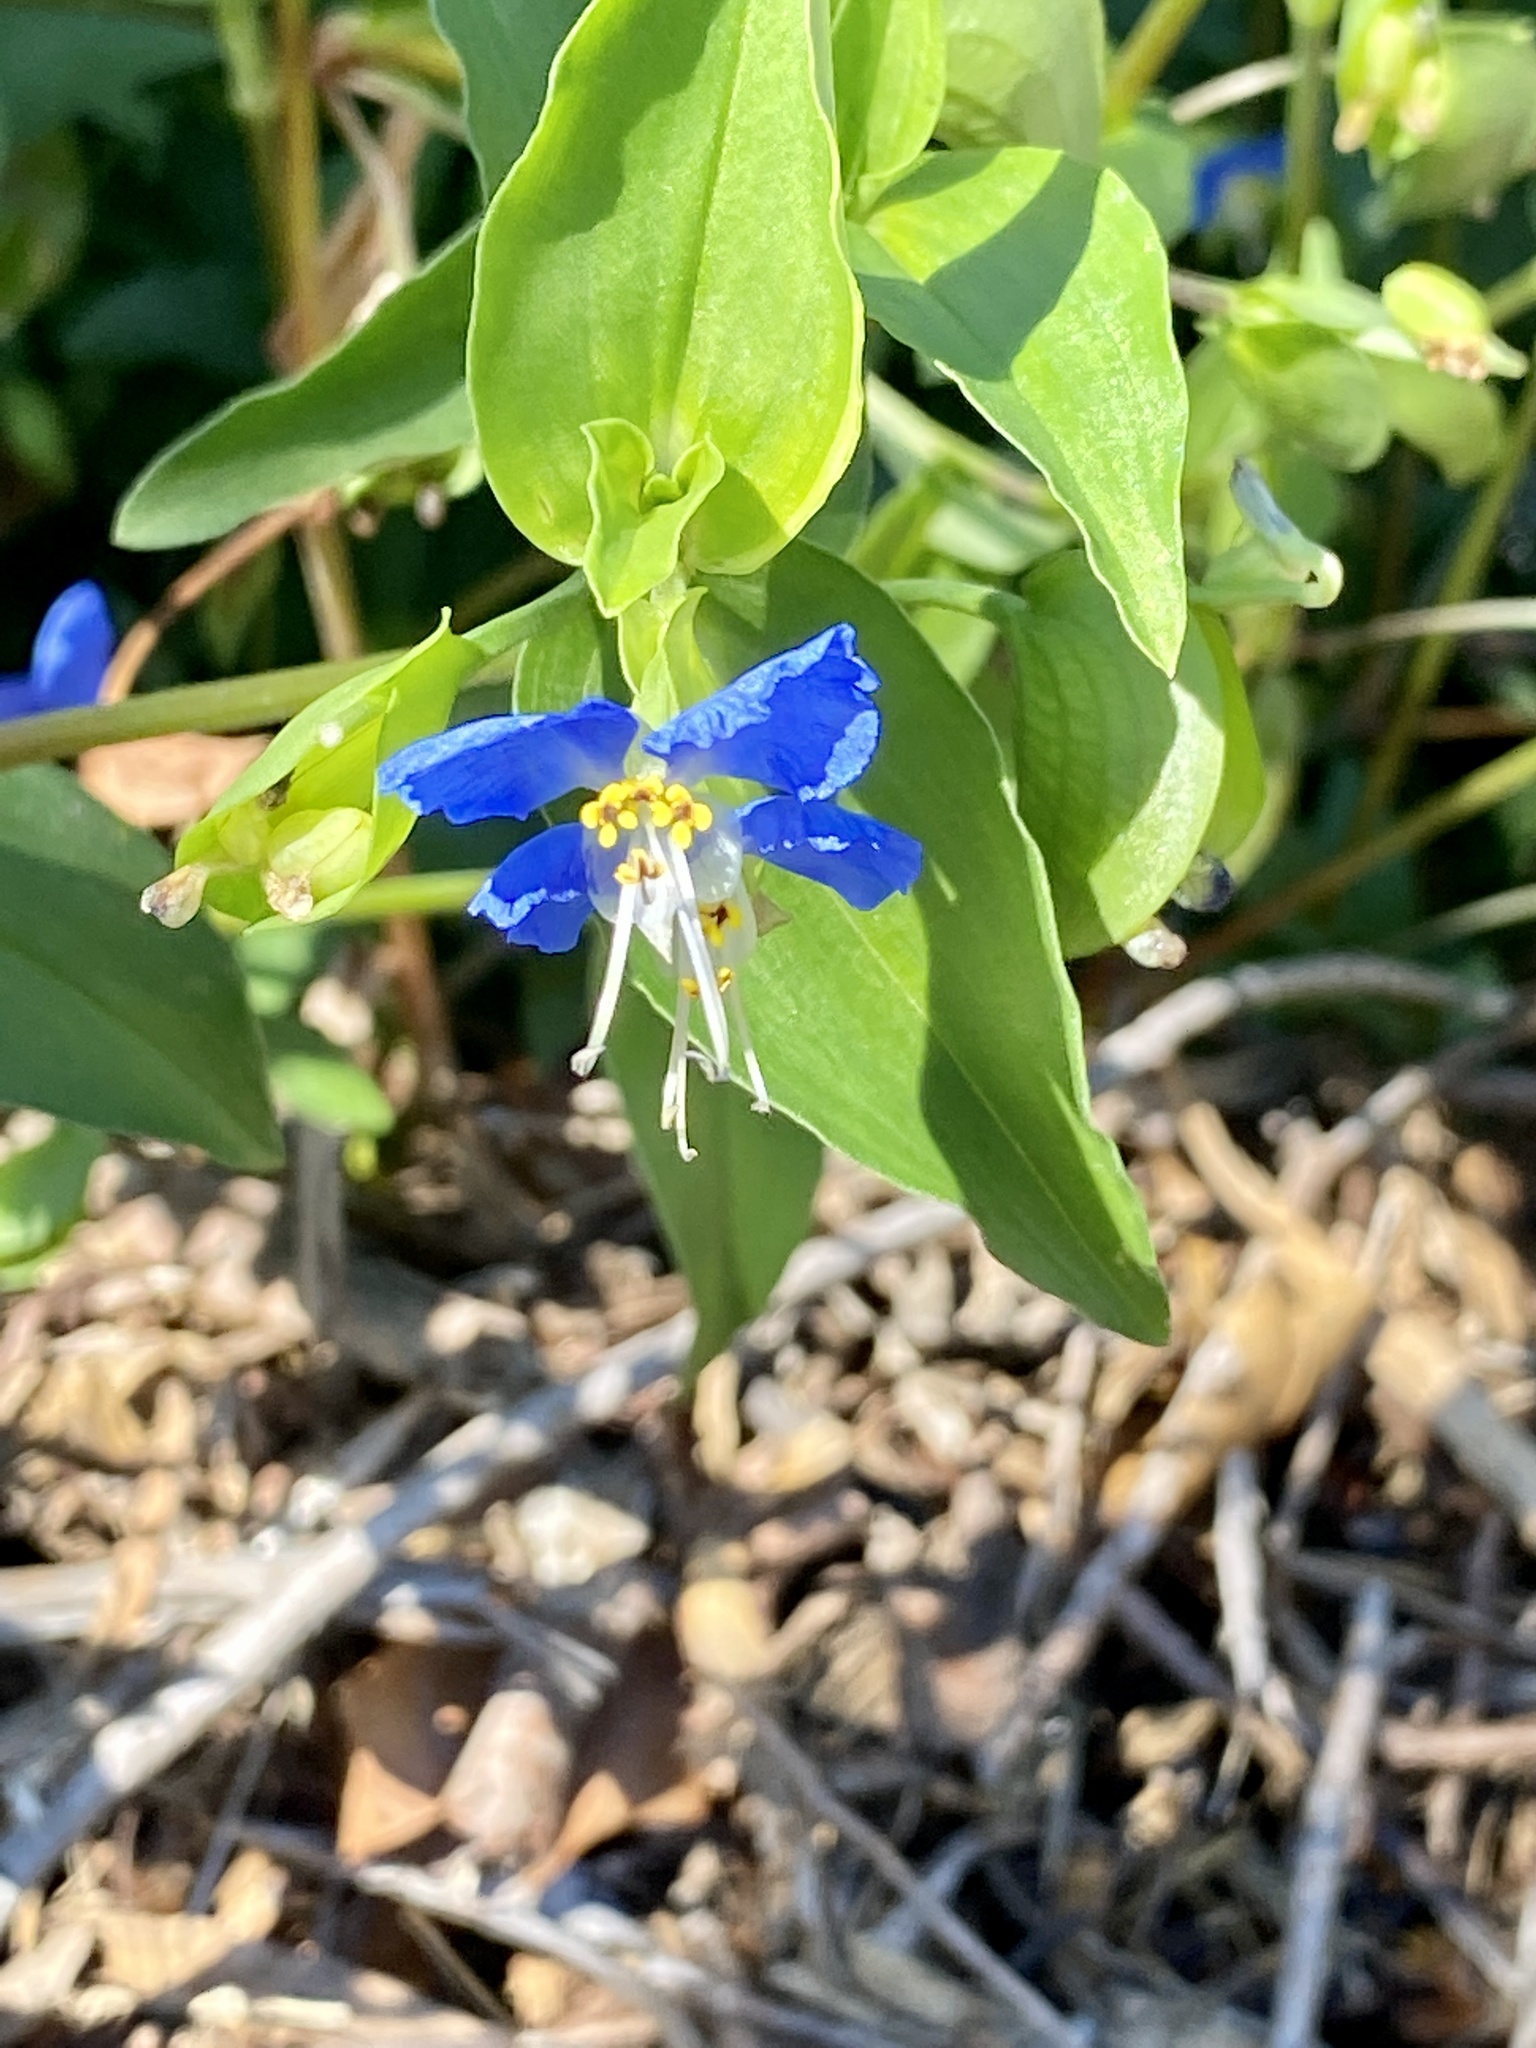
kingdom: Plantae
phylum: Tracheophyta
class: Liliopsida
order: Commelinales
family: Commelinaceae
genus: Commelina
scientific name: Commelina communis
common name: Asiatic dayflower
